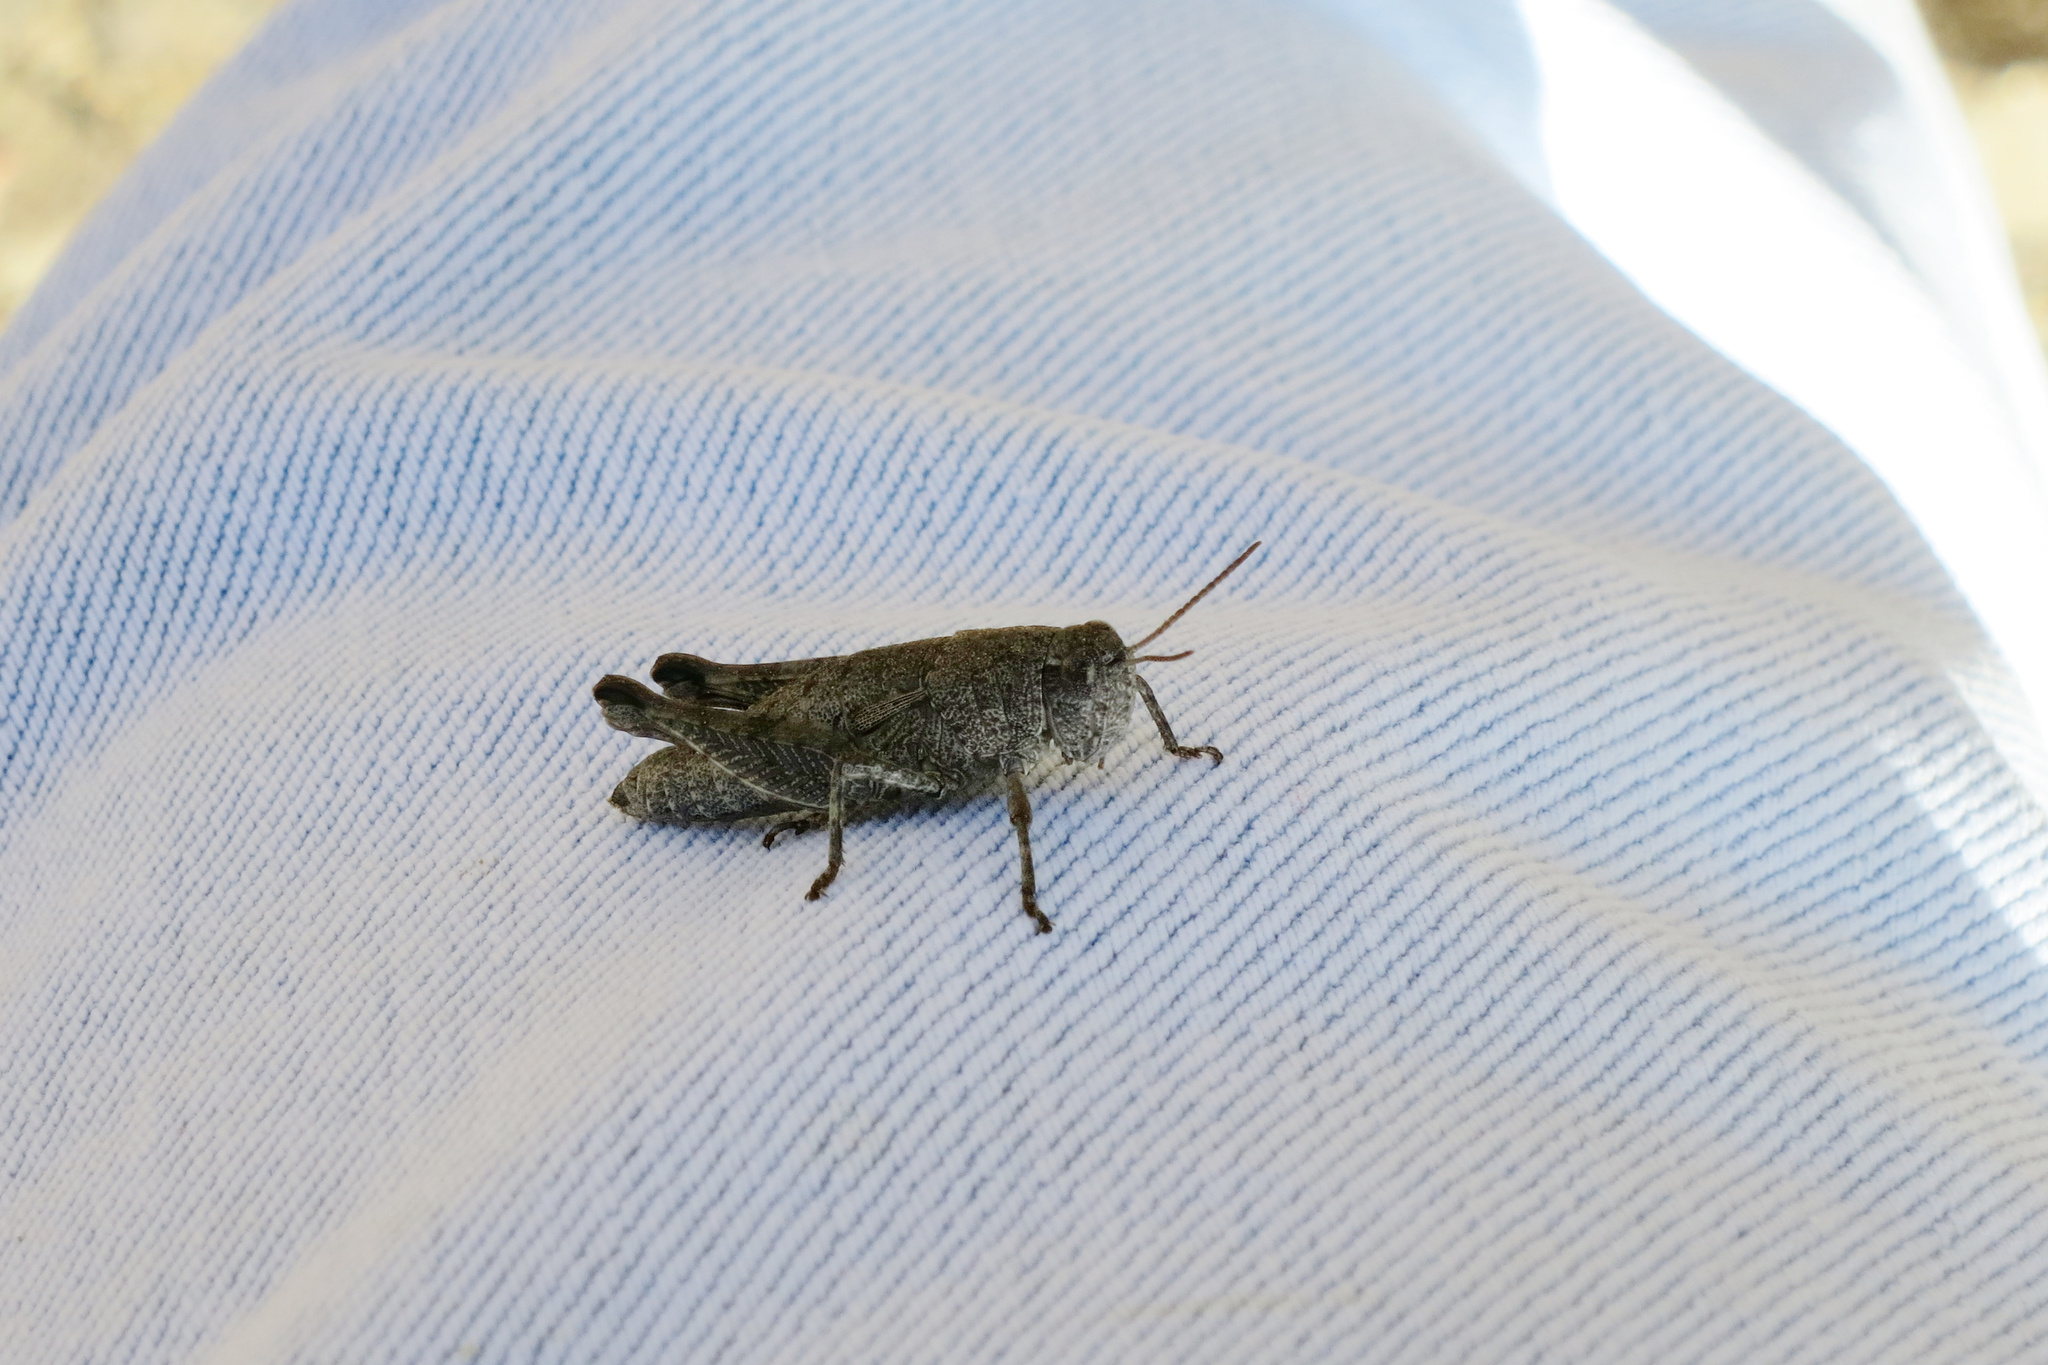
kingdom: Animalia
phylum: Arthropoda
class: Insecta
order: Orthoptera
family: Acrididae
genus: Tasmaniacris
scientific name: Tasmaniacris tasmaniensis
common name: Tasmanian grasshopper
